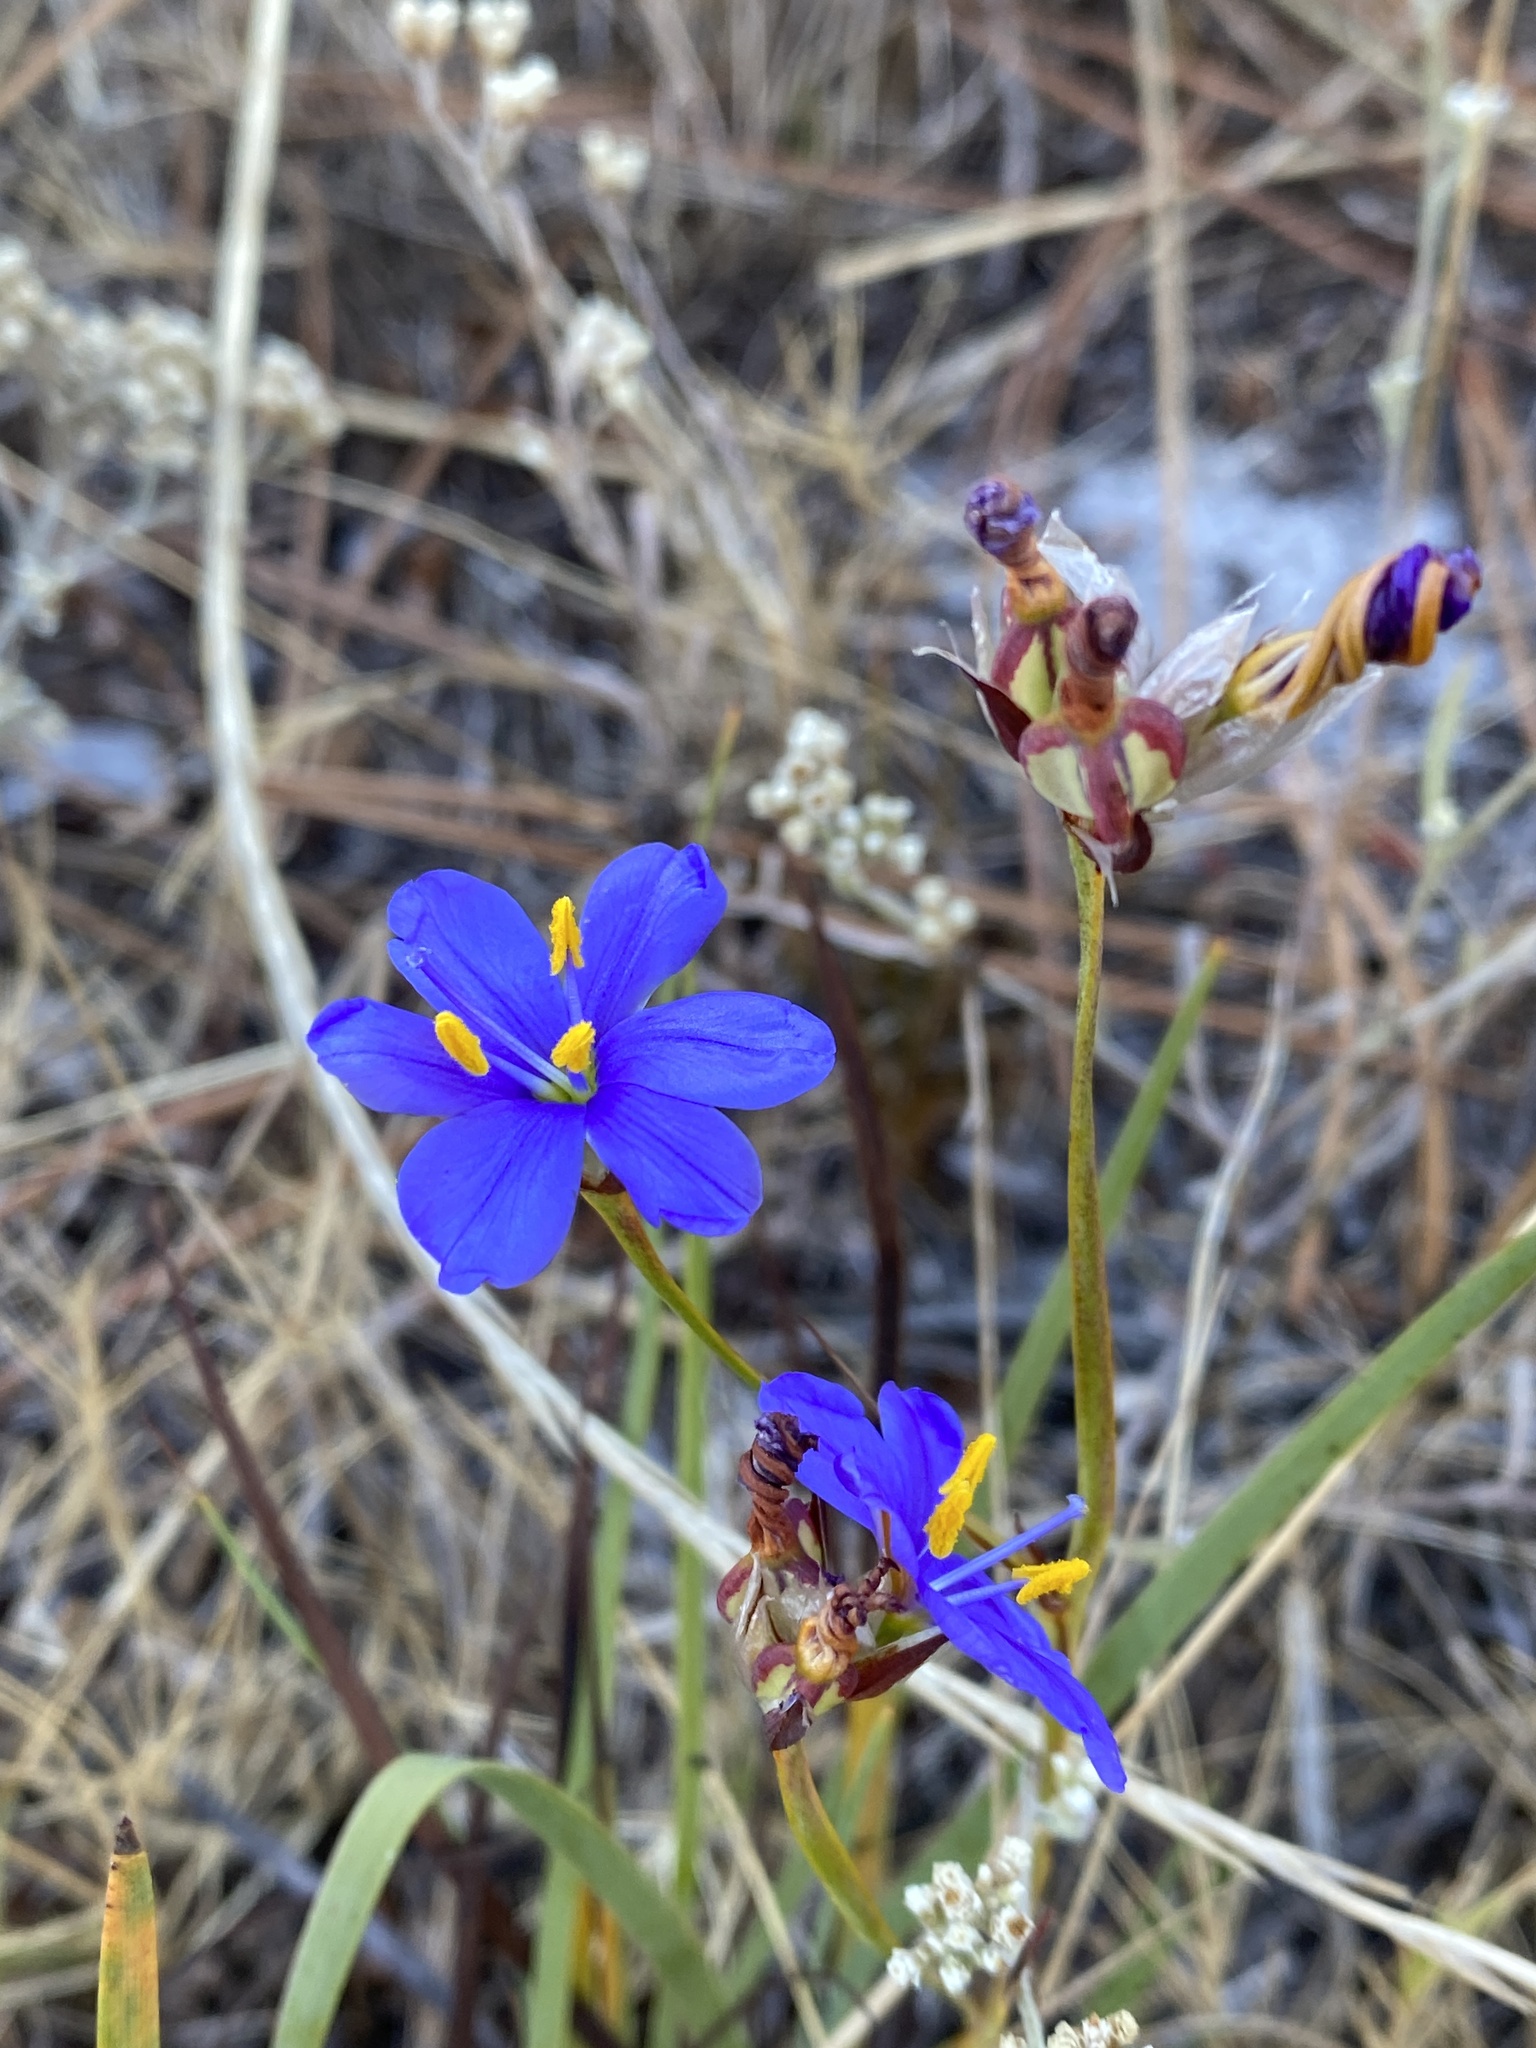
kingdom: Plantae
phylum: Tracheophyta
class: Liliopsida
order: Asparagales
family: Iridaceae
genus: Aristea
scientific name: Aristea glauca
